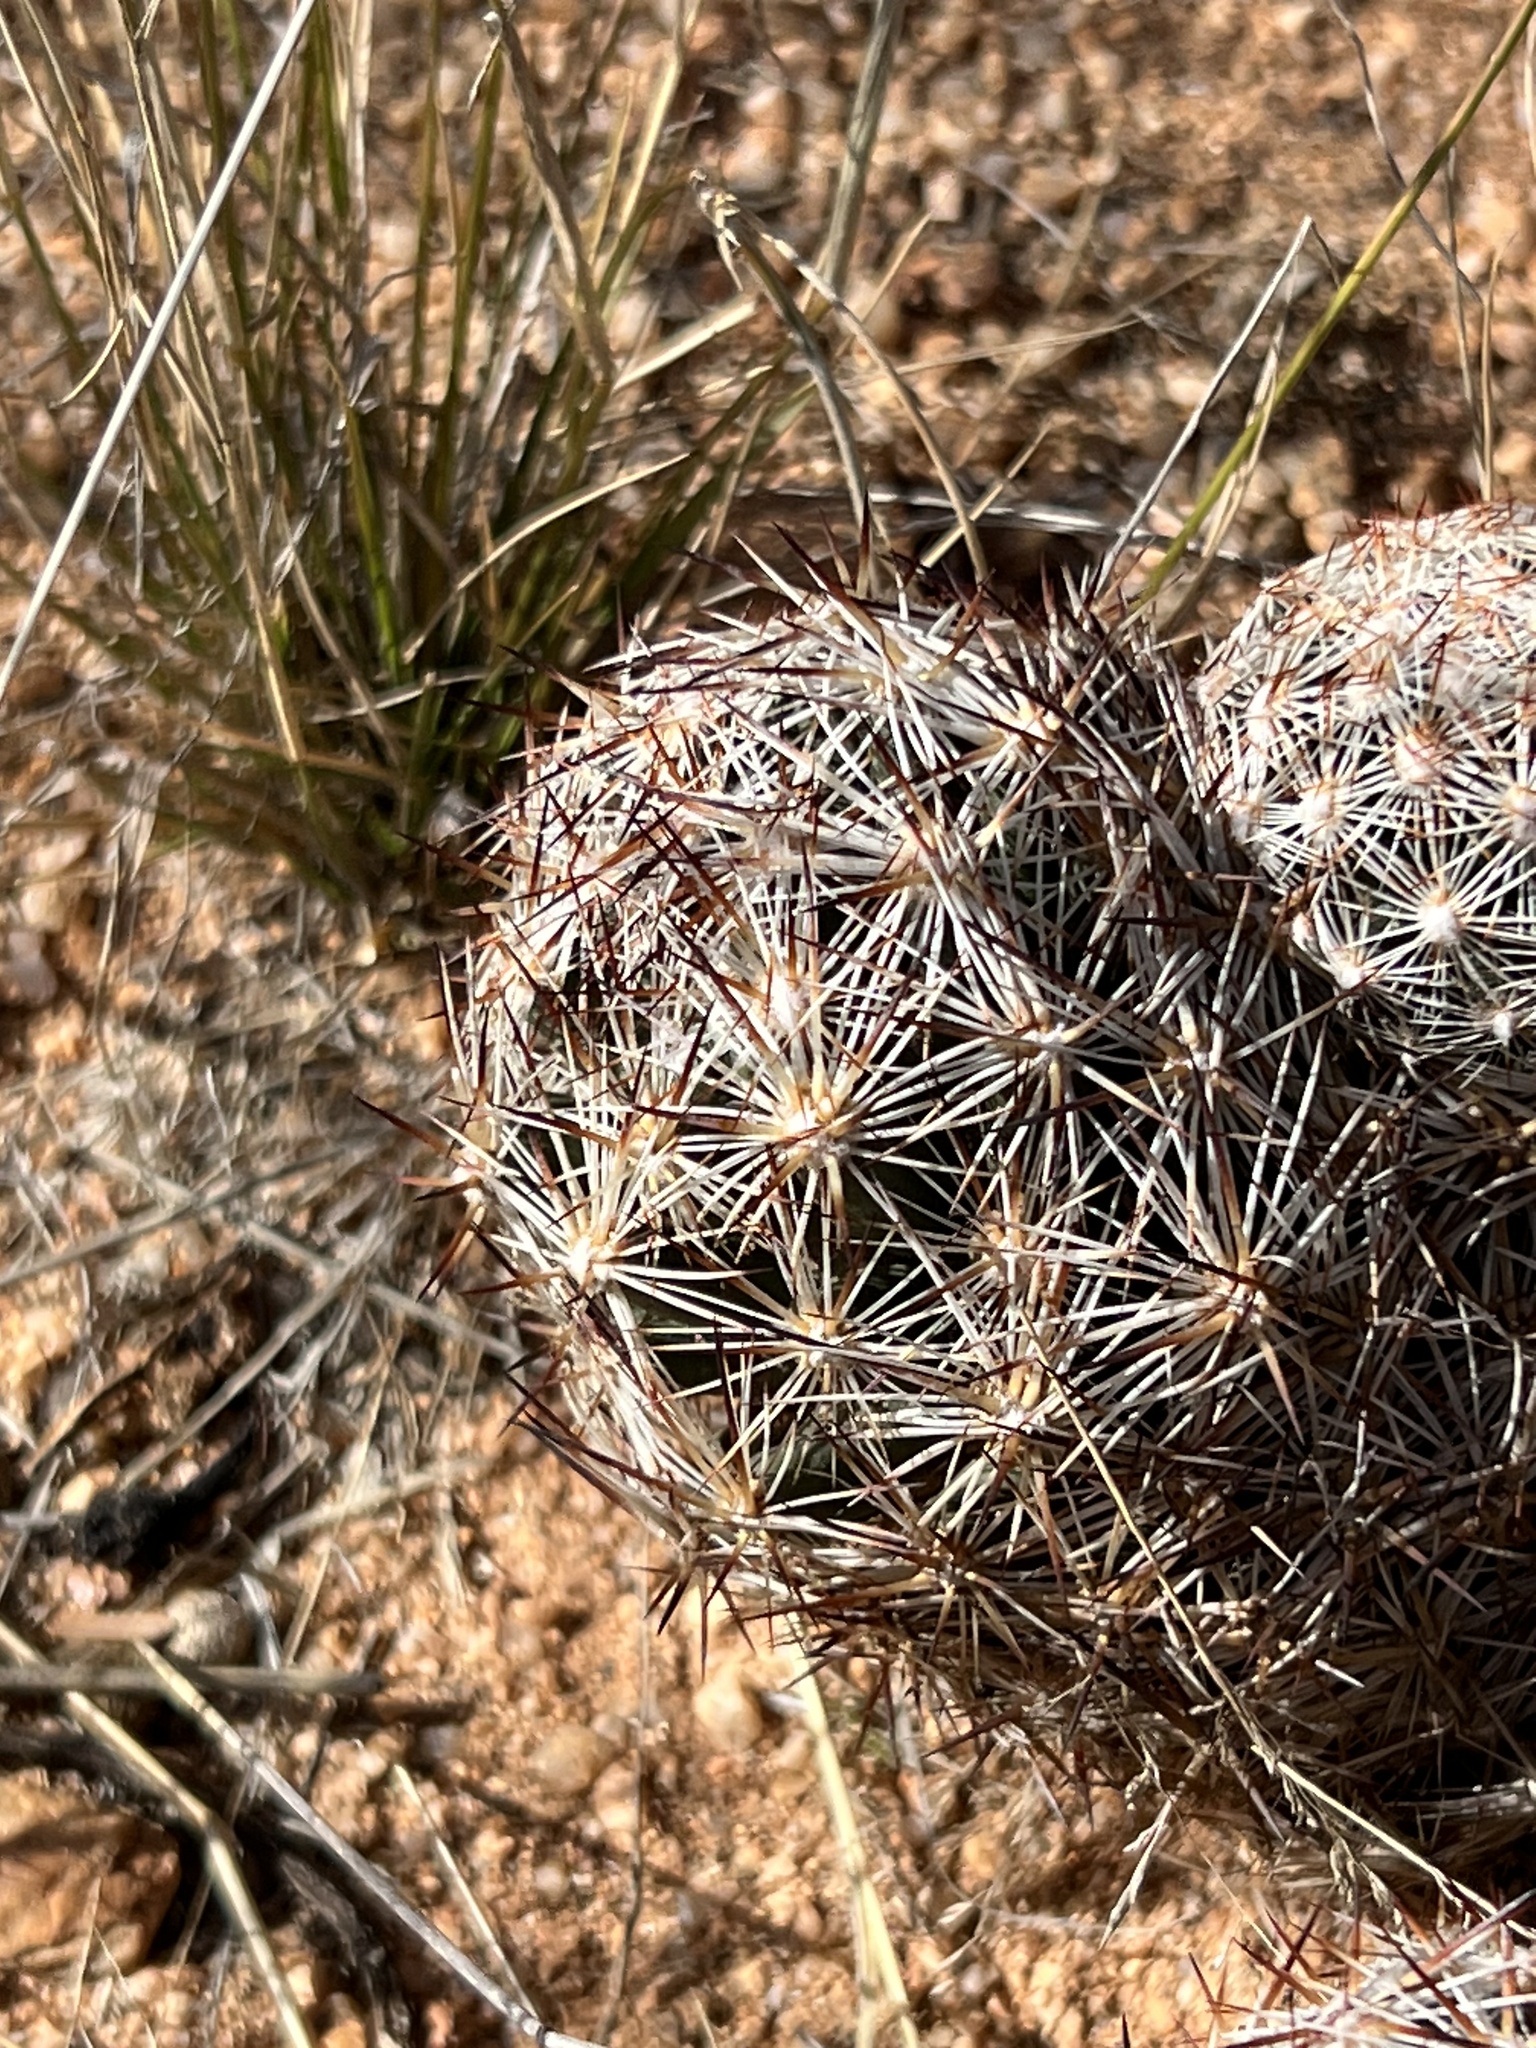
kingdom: Plantae
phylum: Tracheophyta
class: Magnoliopsida
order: Caryophyllales
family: Cactaceae
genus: Pelecyphora
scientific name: Pelecyphora vivipara
